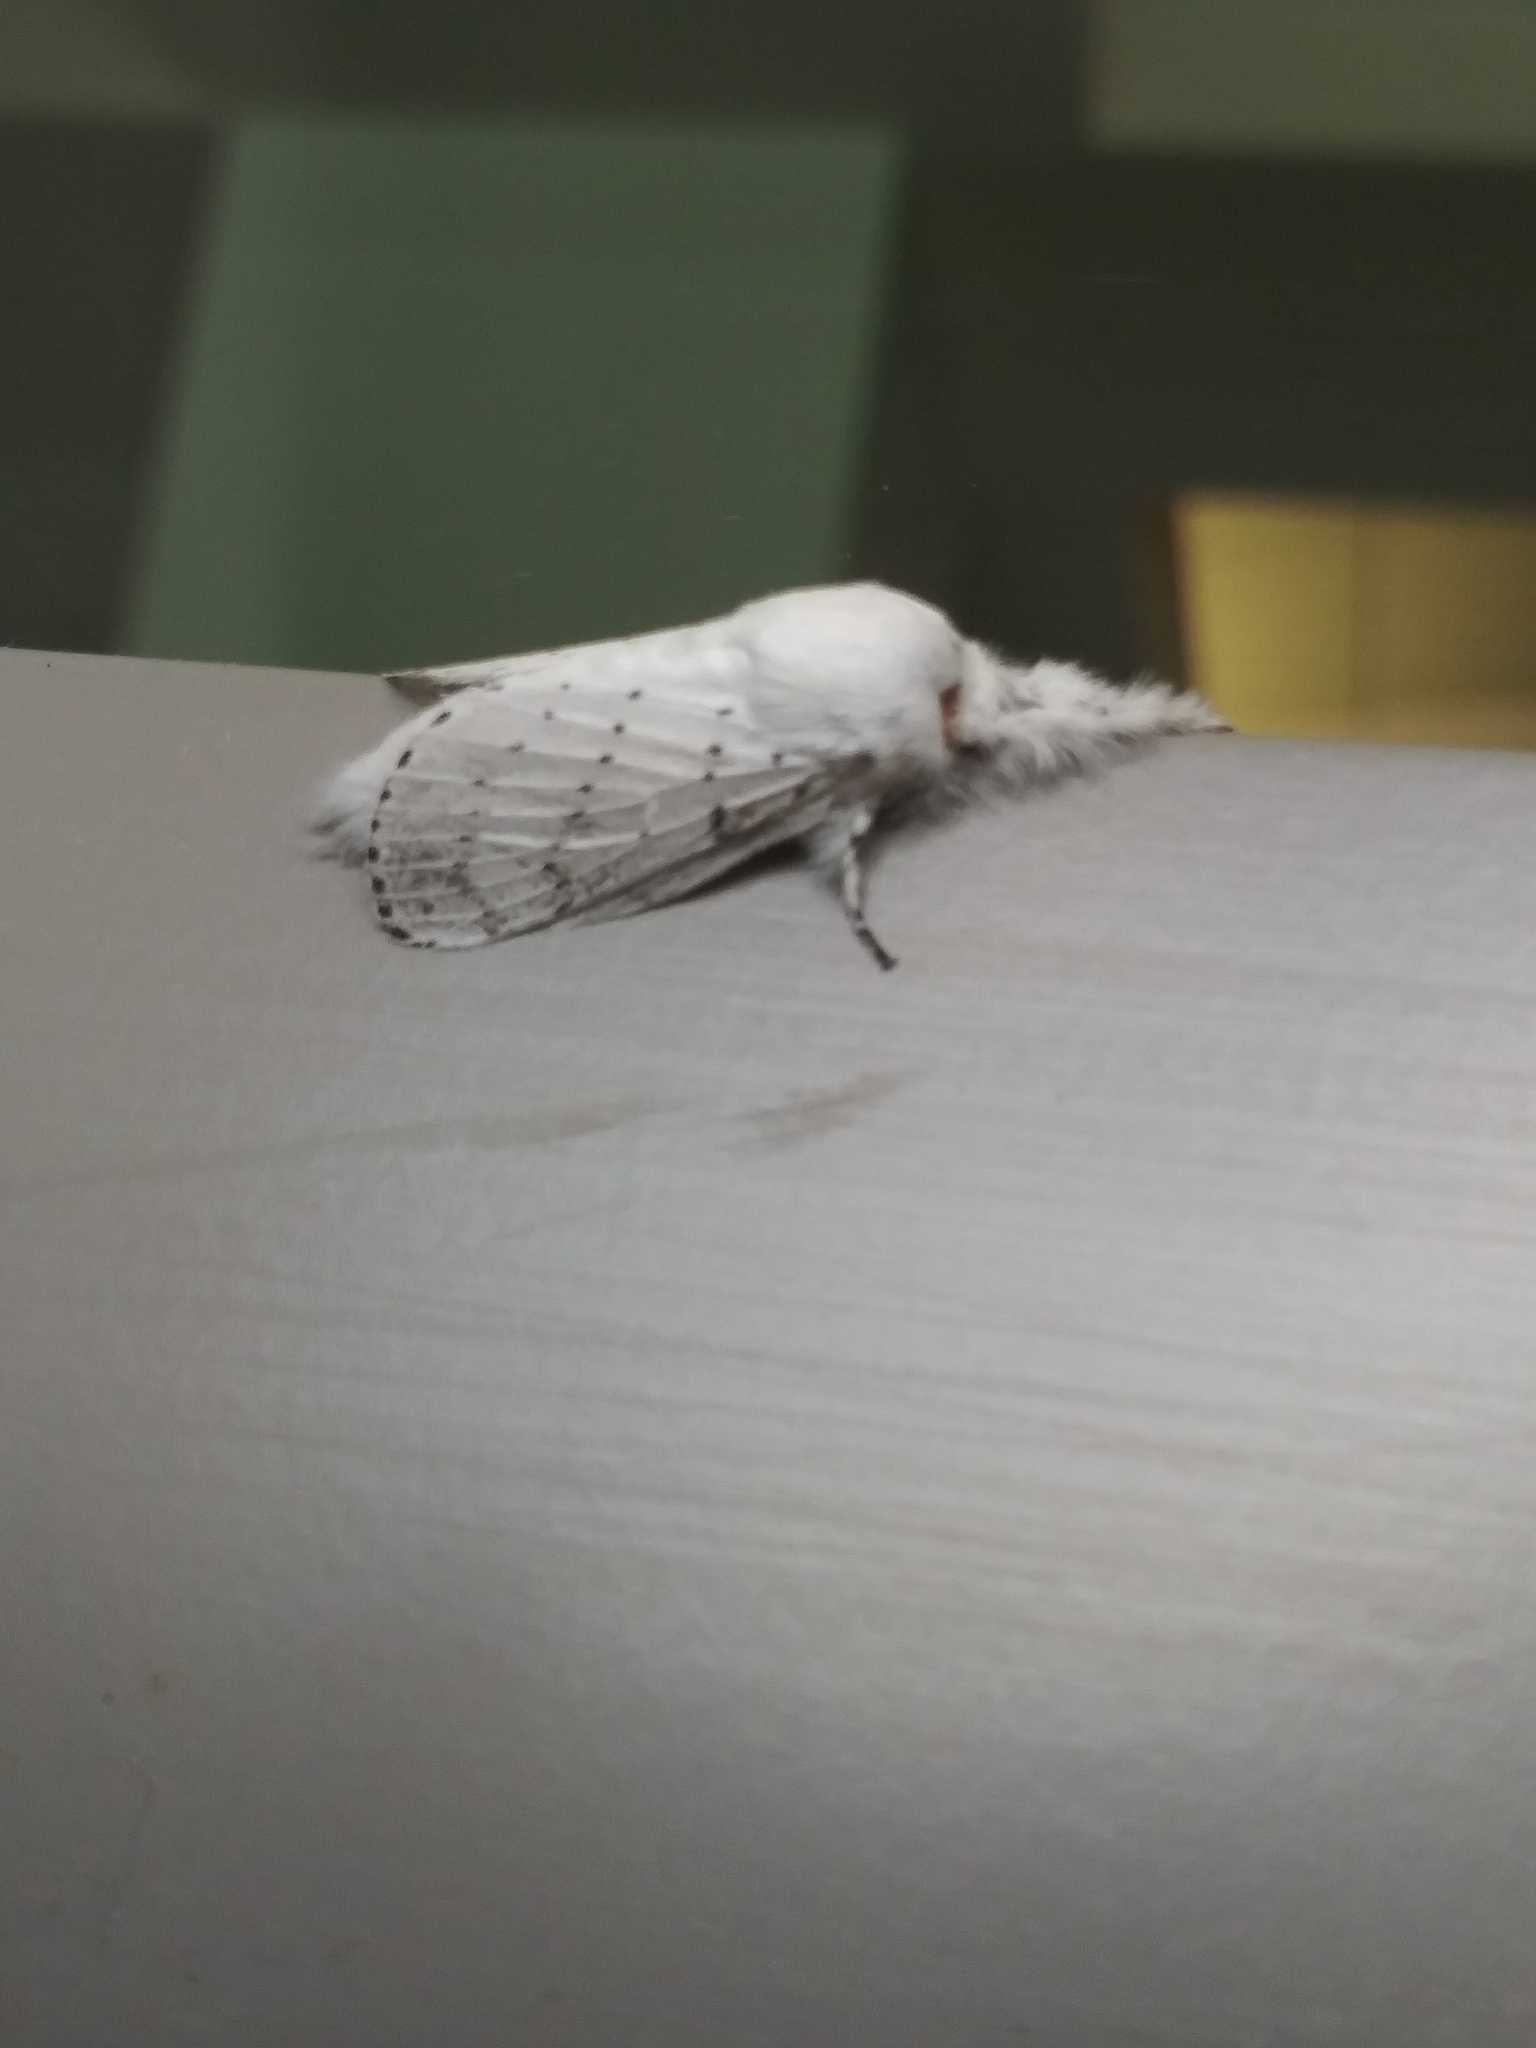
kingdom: Animalia
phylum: Arthropoda
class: Insecta
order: Lepidoptera
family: Lasiocampidae
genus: Artace
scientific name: Artace cribrarius
